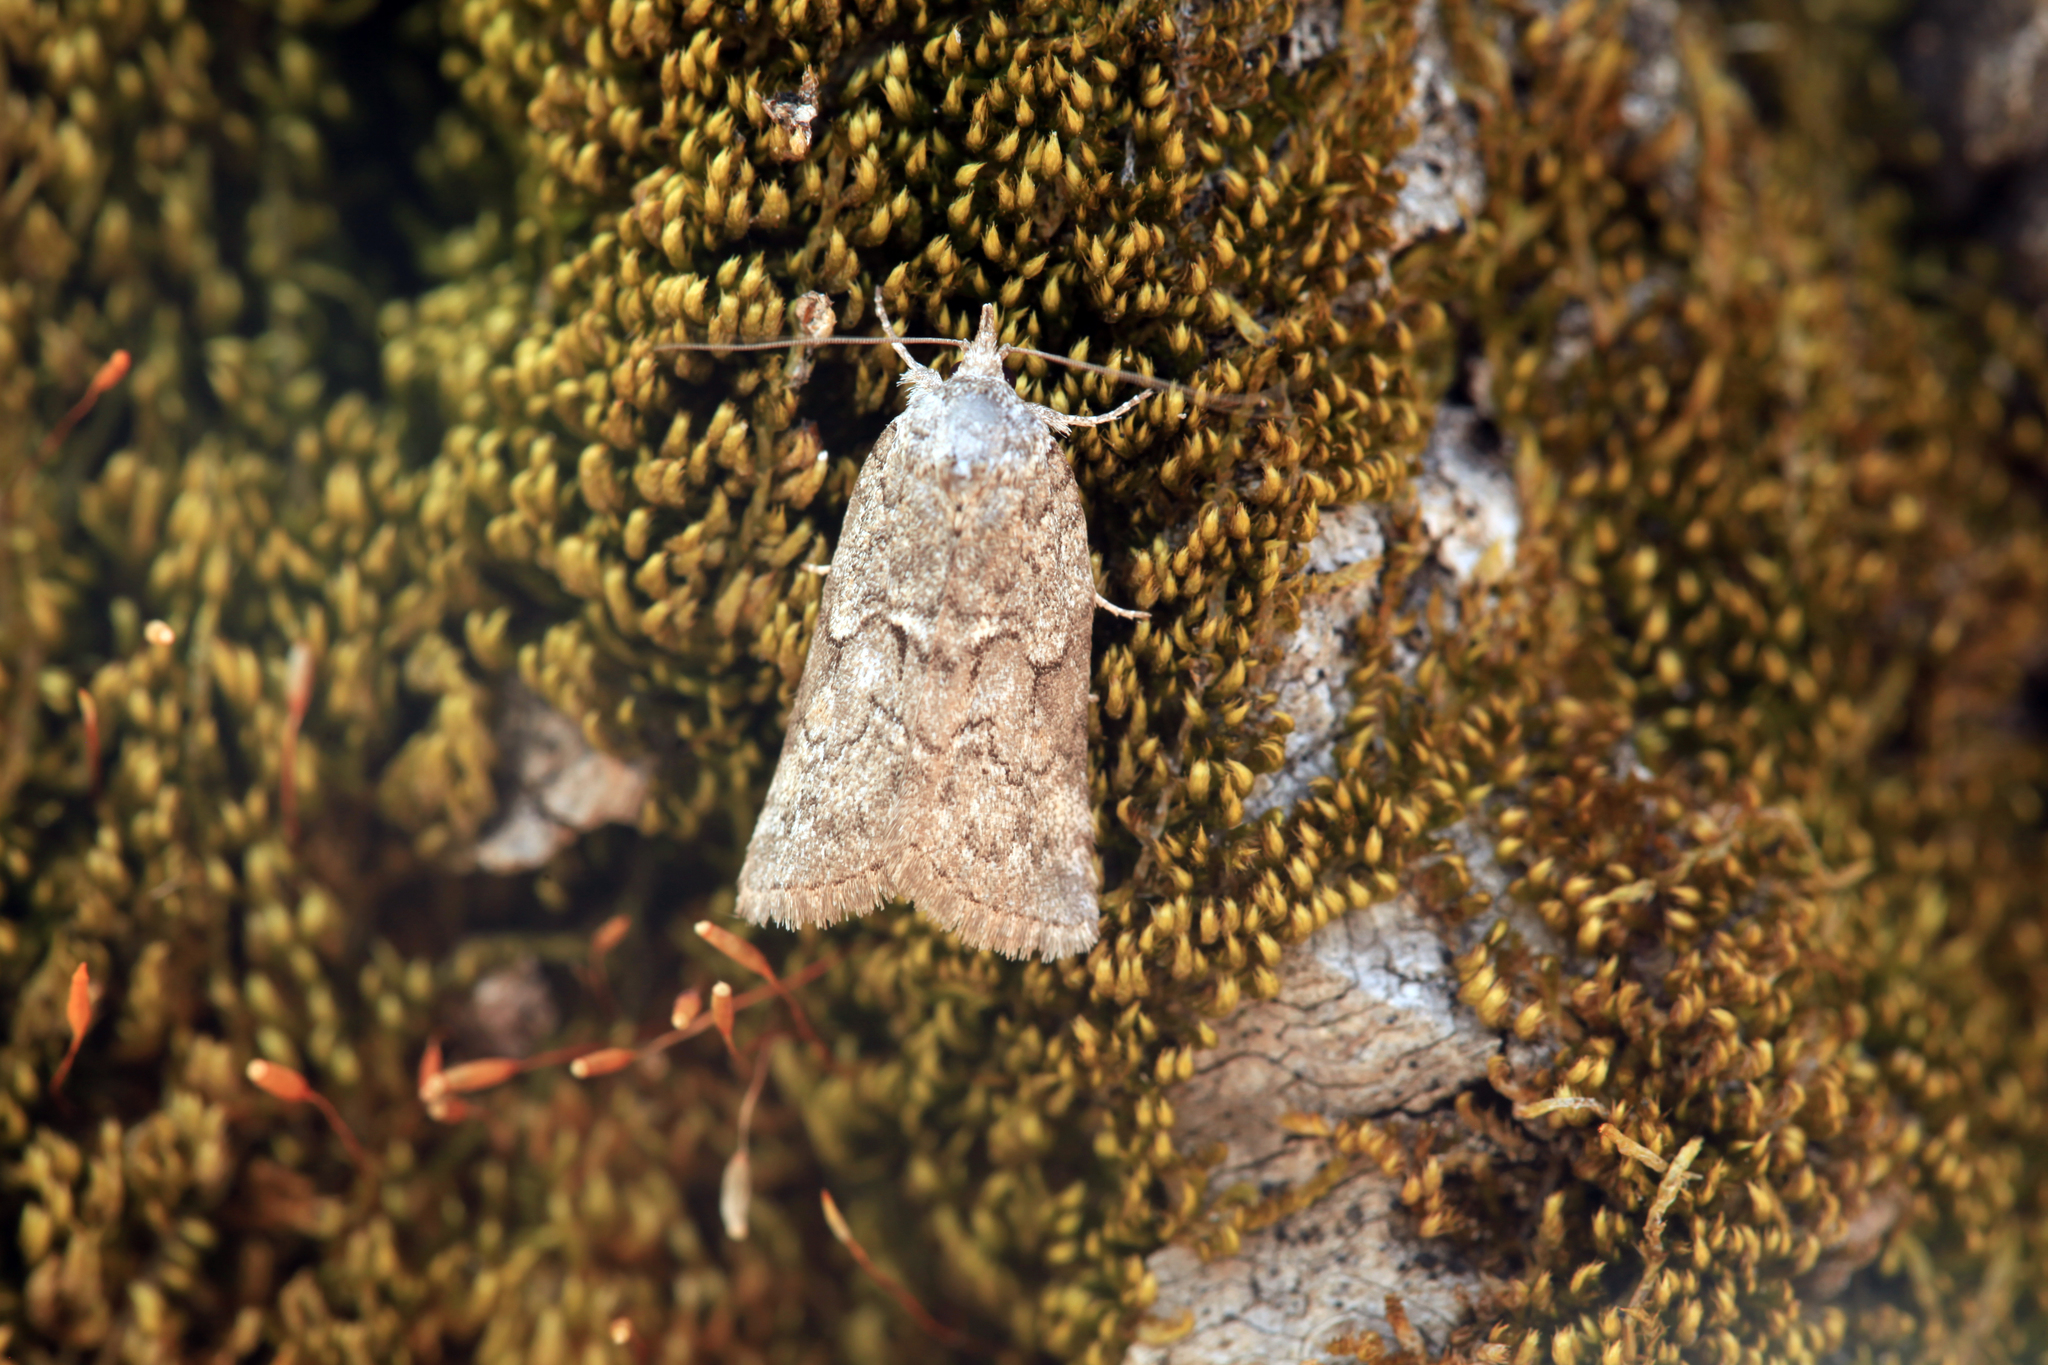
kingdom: Animalia
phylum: Arthropoda
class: Insecta
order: Lepidoptera
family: Nolidae
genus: Nycteola
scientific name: Nycteola degenerana
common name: Swallow nycteoline
